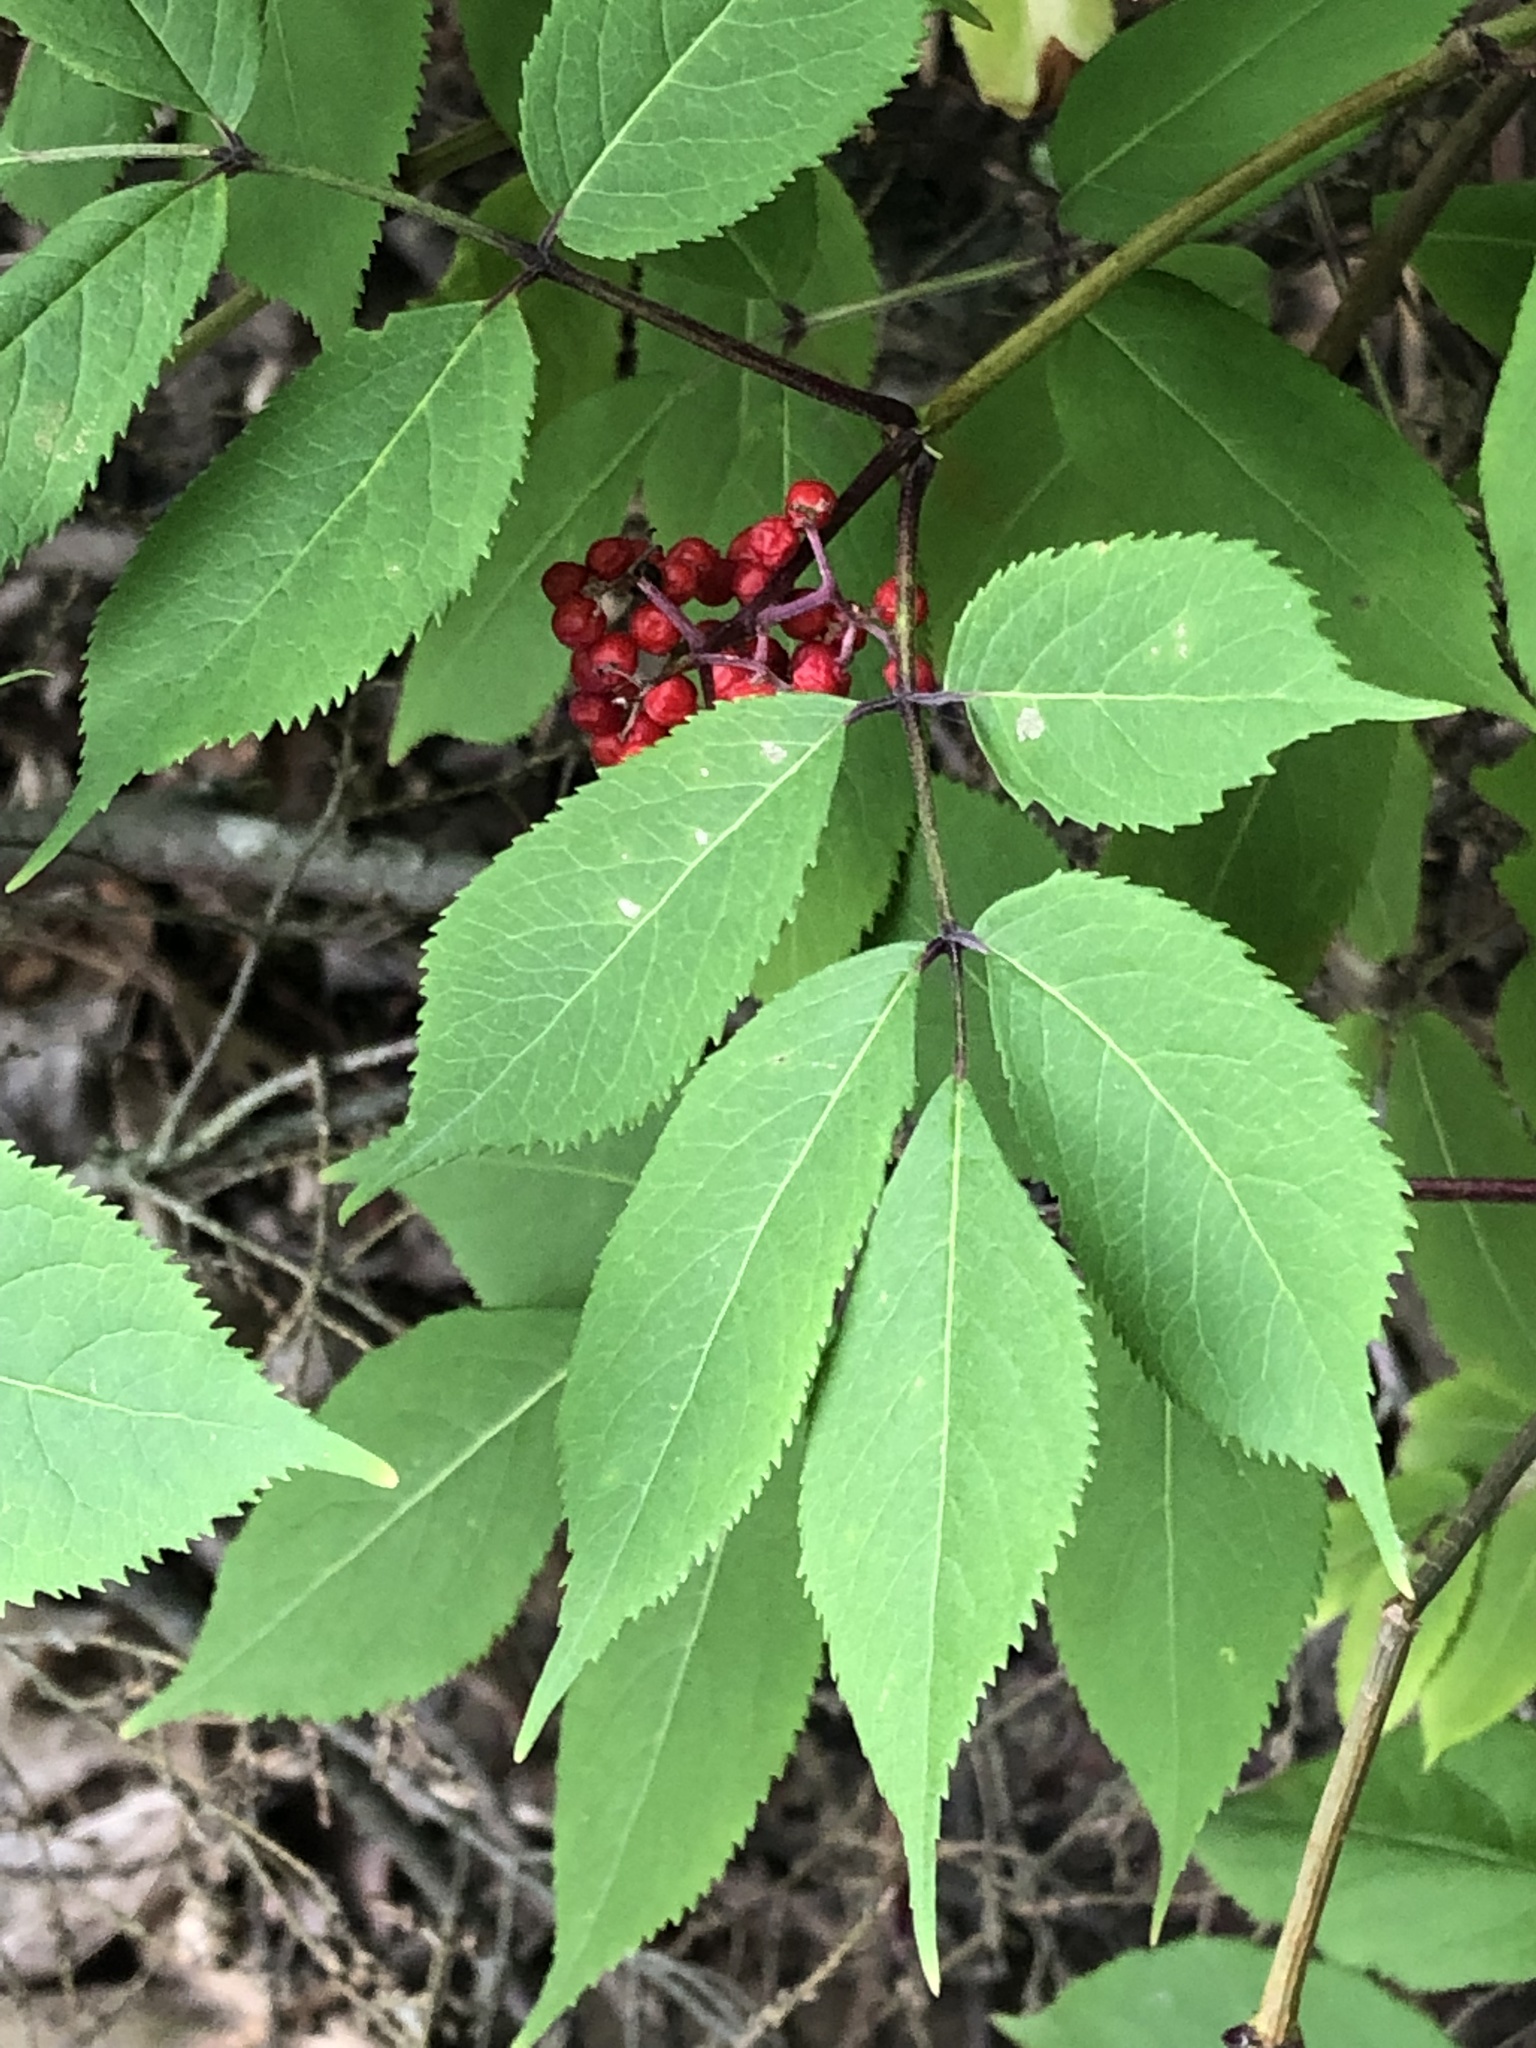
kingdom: Plantae
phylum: Tracheophyta
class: Magnoliopsida
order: Dipsacales
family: Viburnaceae
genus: Sambucus
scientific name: Sambucus racemosa
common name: Red-berried elder
